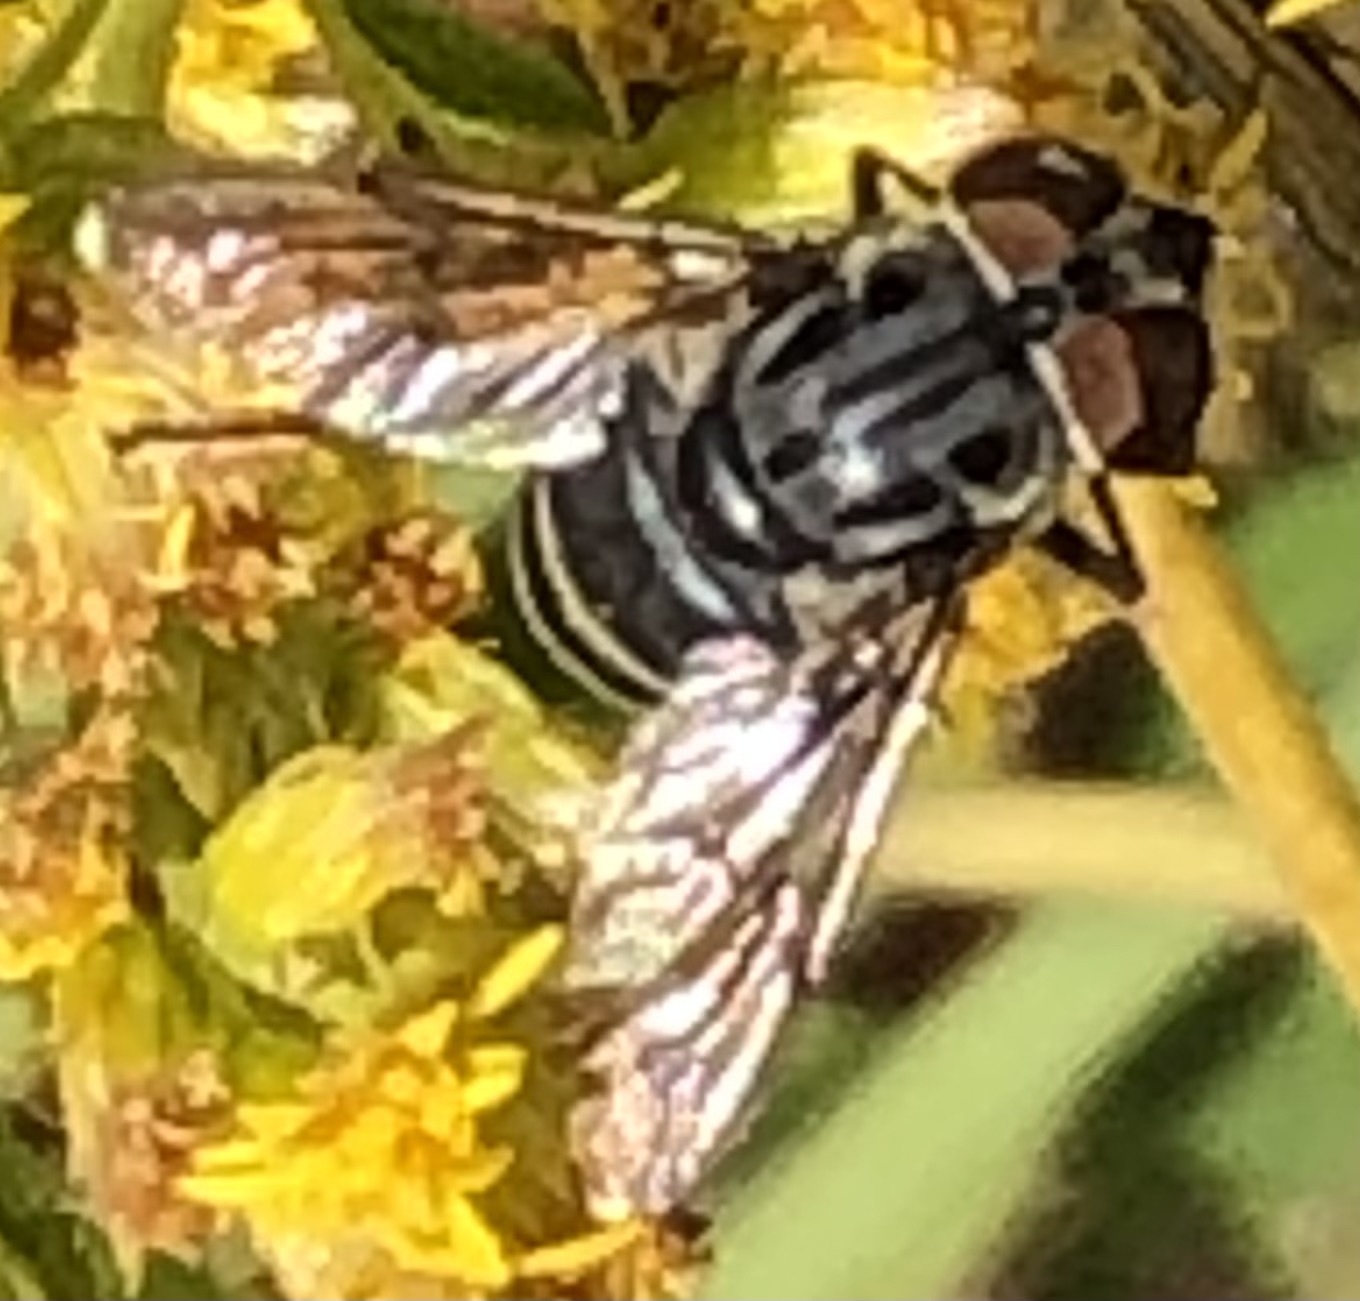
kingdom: Animalia
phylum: Arthropoda
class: Insecta
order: Diptera
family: Syrphidae
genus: Palpada
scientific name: Palpada furcata
